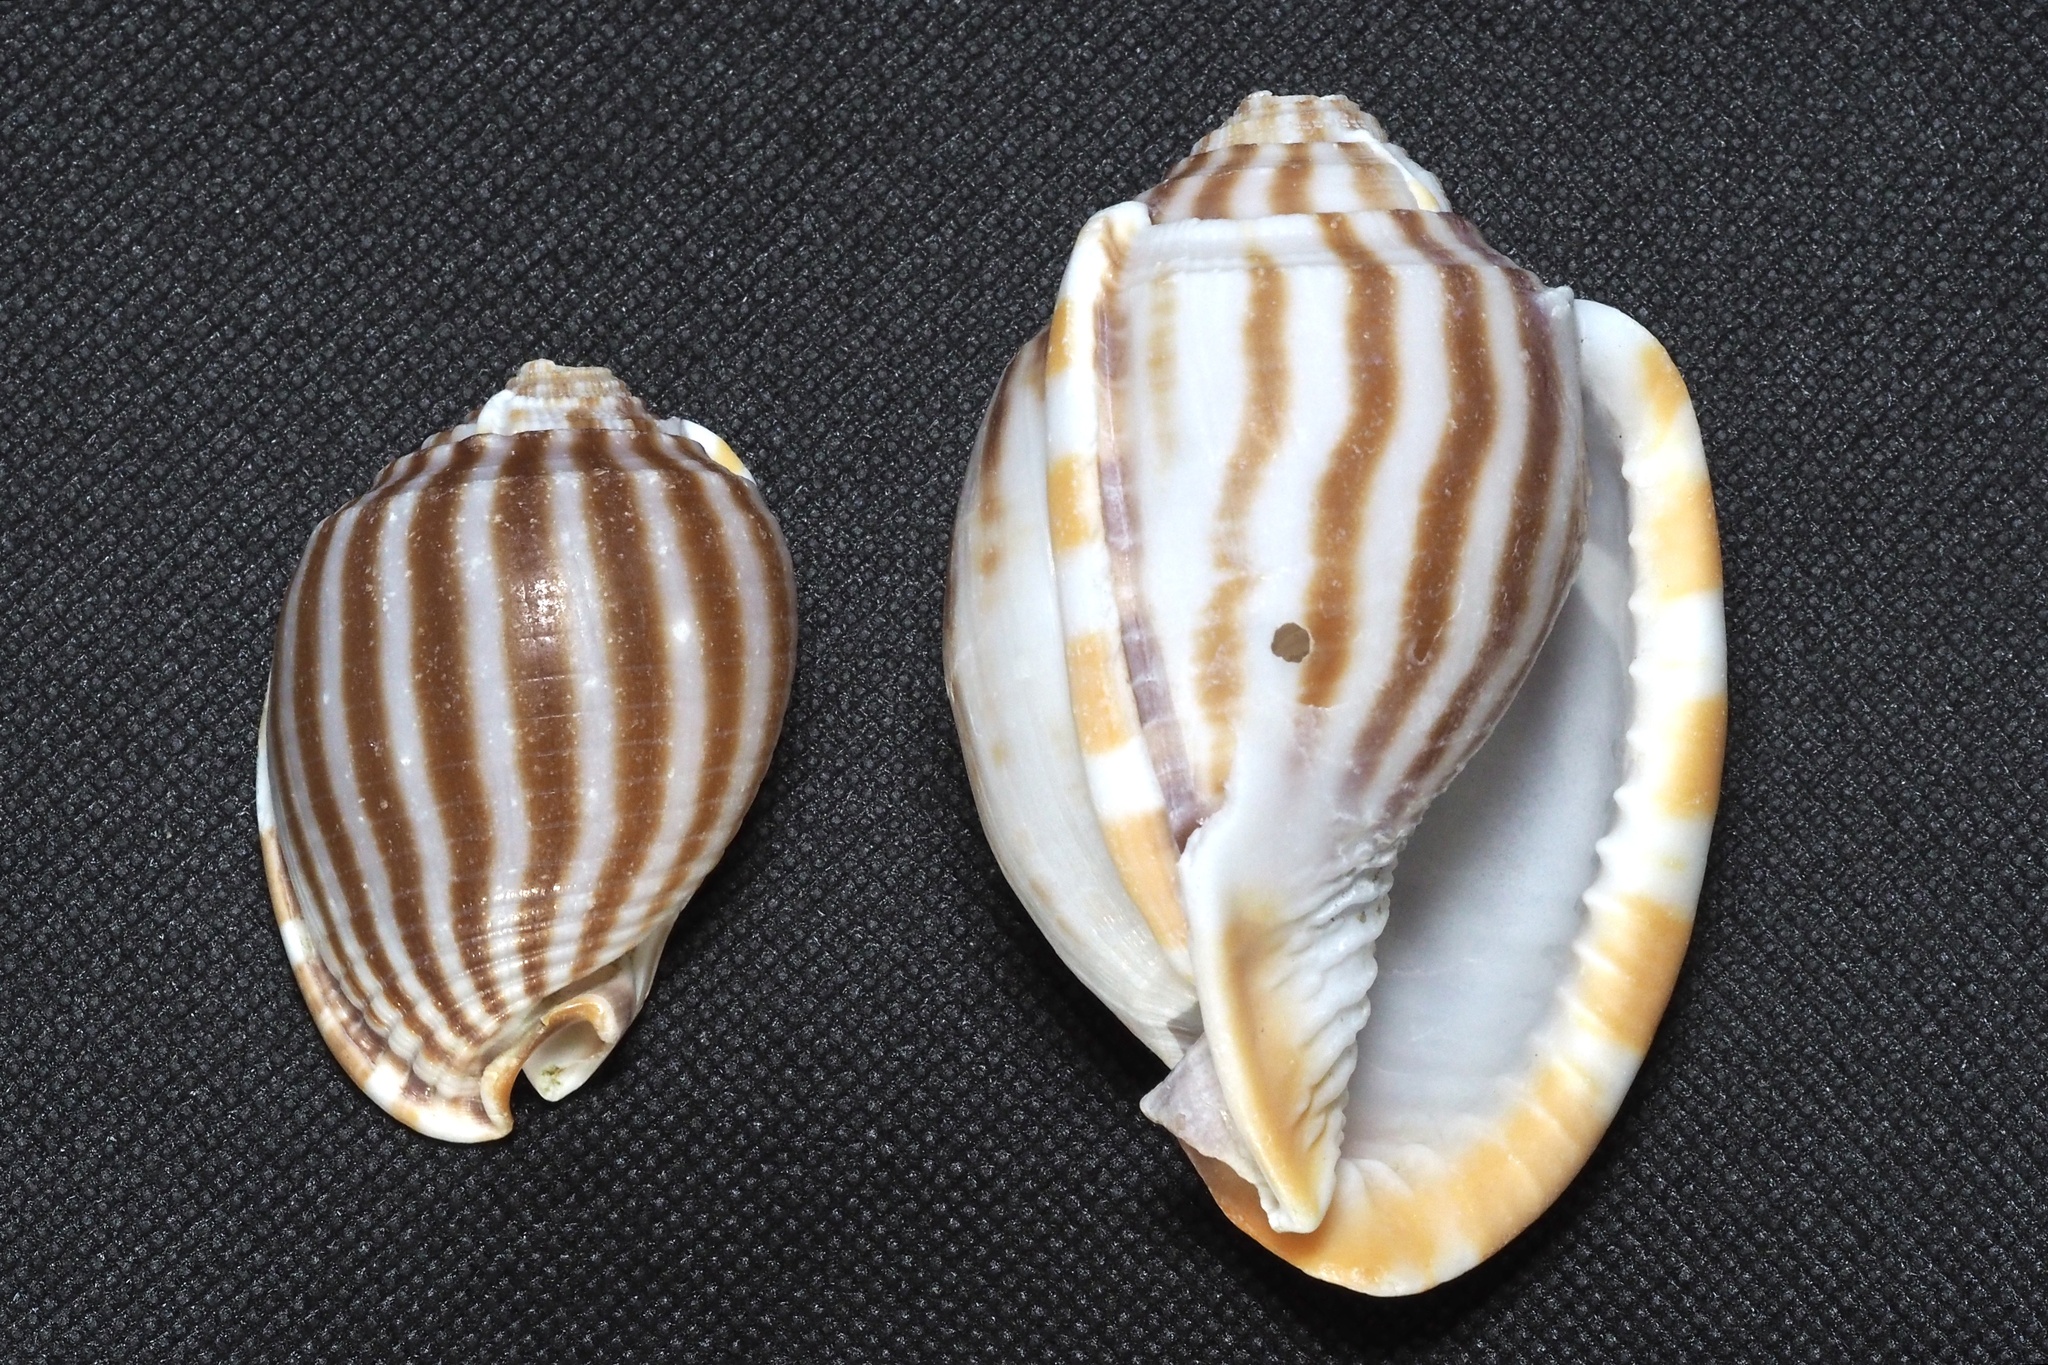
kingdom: Animalia
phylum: Mollusca
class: Gastropoda
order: Littorinimorpha
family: Cassidae
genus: Phalium
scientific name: Phalium flammiferum
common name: Flammed bonnet
